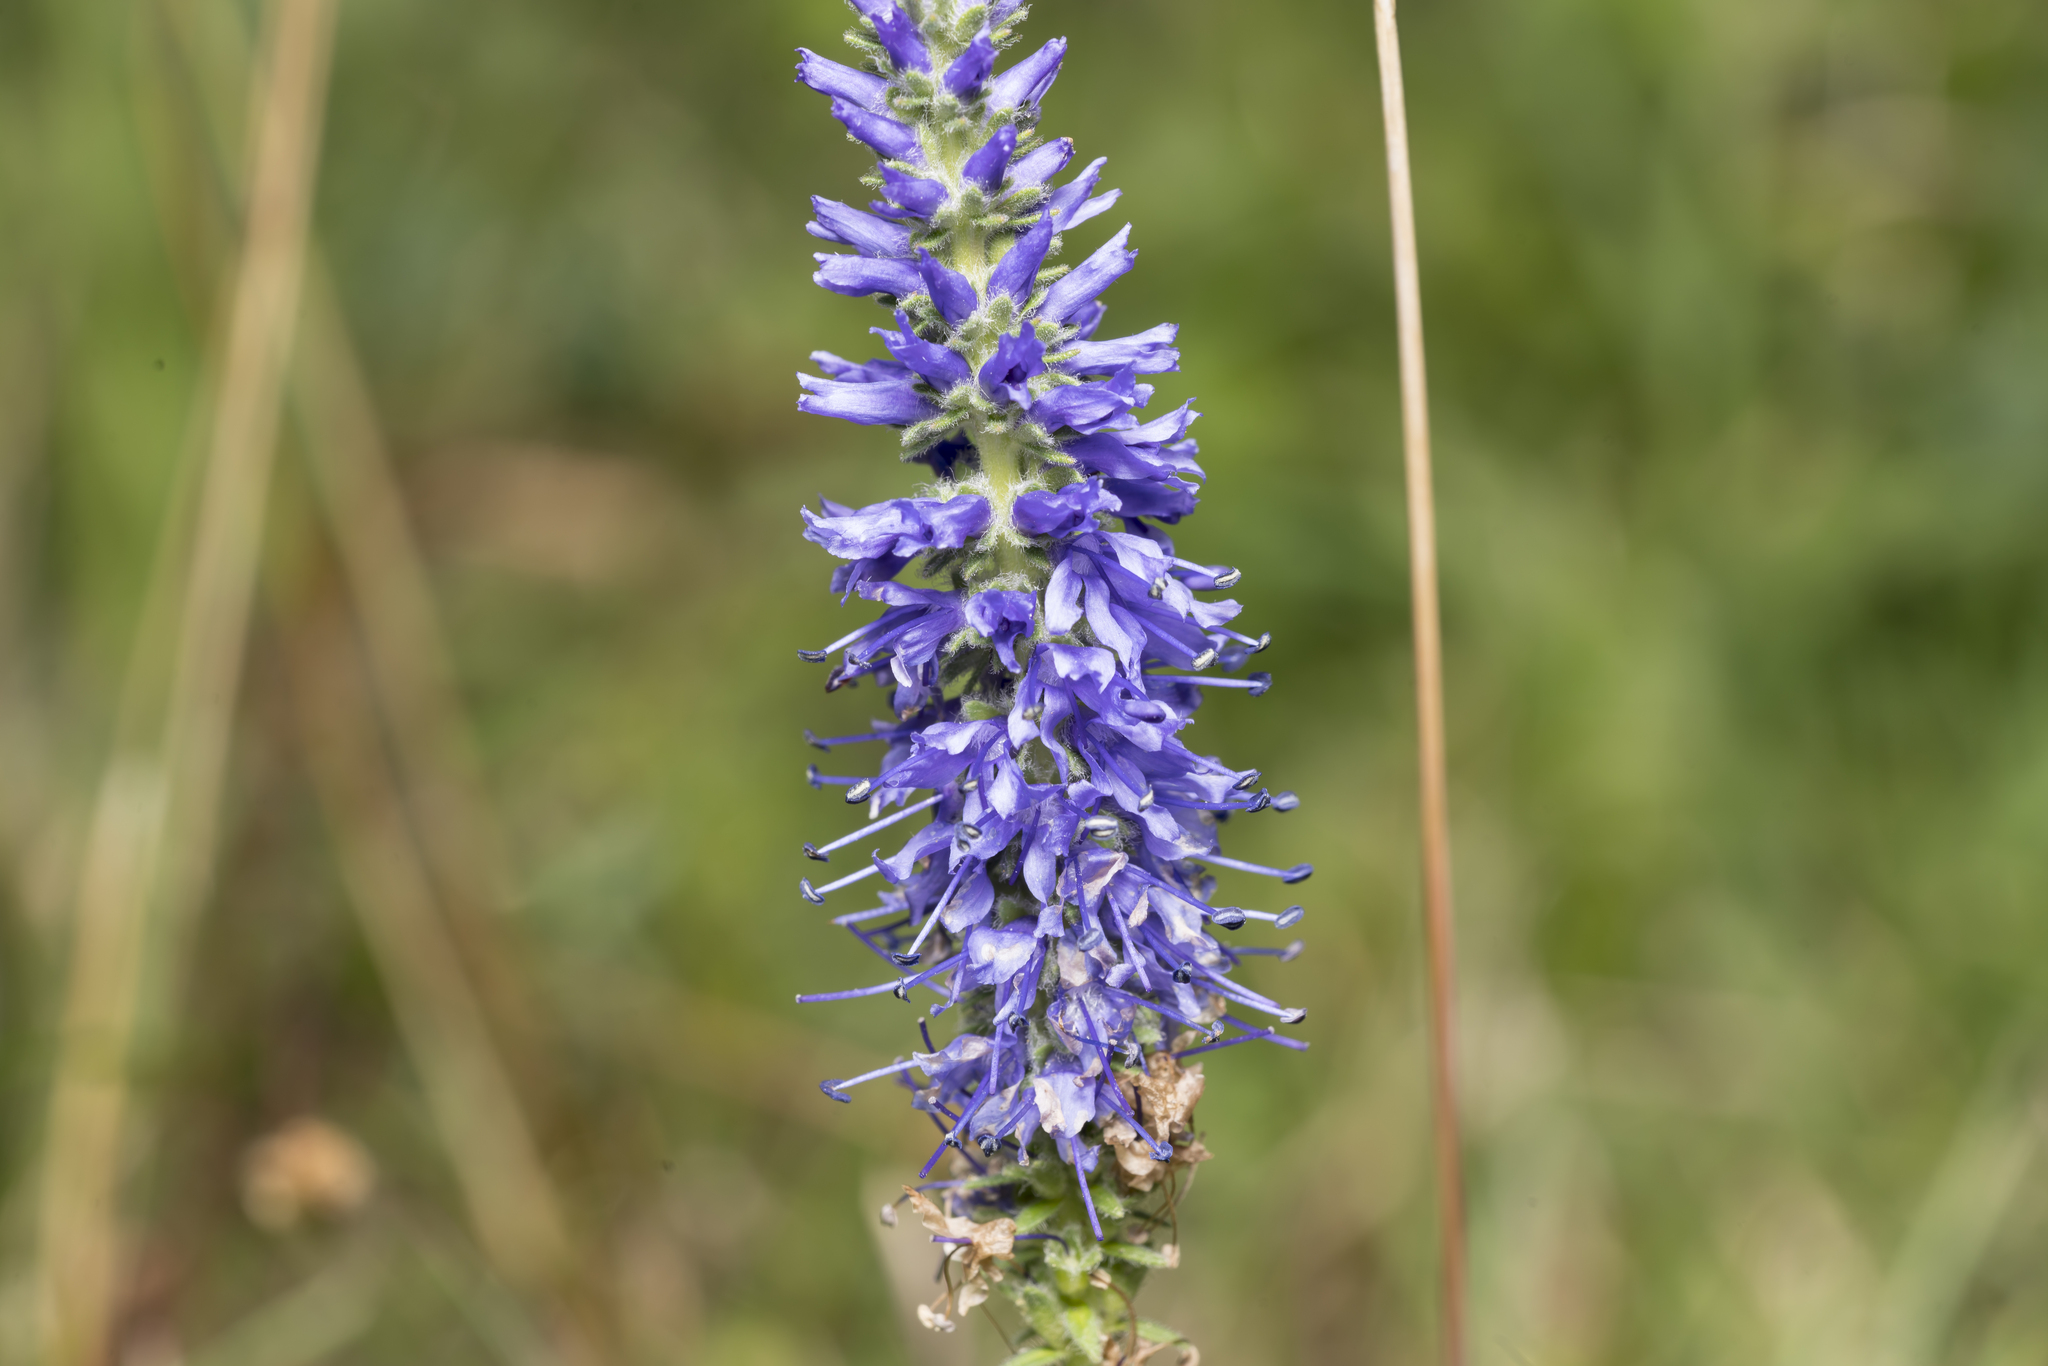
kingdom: Plantae
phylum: Tracheophyta
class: Magnoliopsida
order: Lamiales
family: Plantaginaceae
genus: Veronica
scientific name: Veronica spicata
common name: Spiked speedwell
